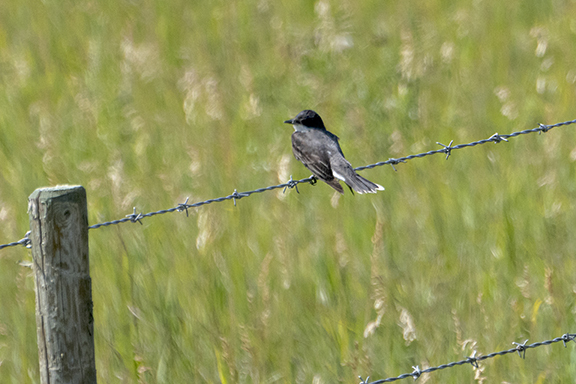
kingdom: Animalia
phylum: Chordata
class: Aves
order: Passeriformes
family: Tyrannidae
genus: Tyrannus
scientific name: Tyrannus tyrannus
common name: Eastern kingbird
